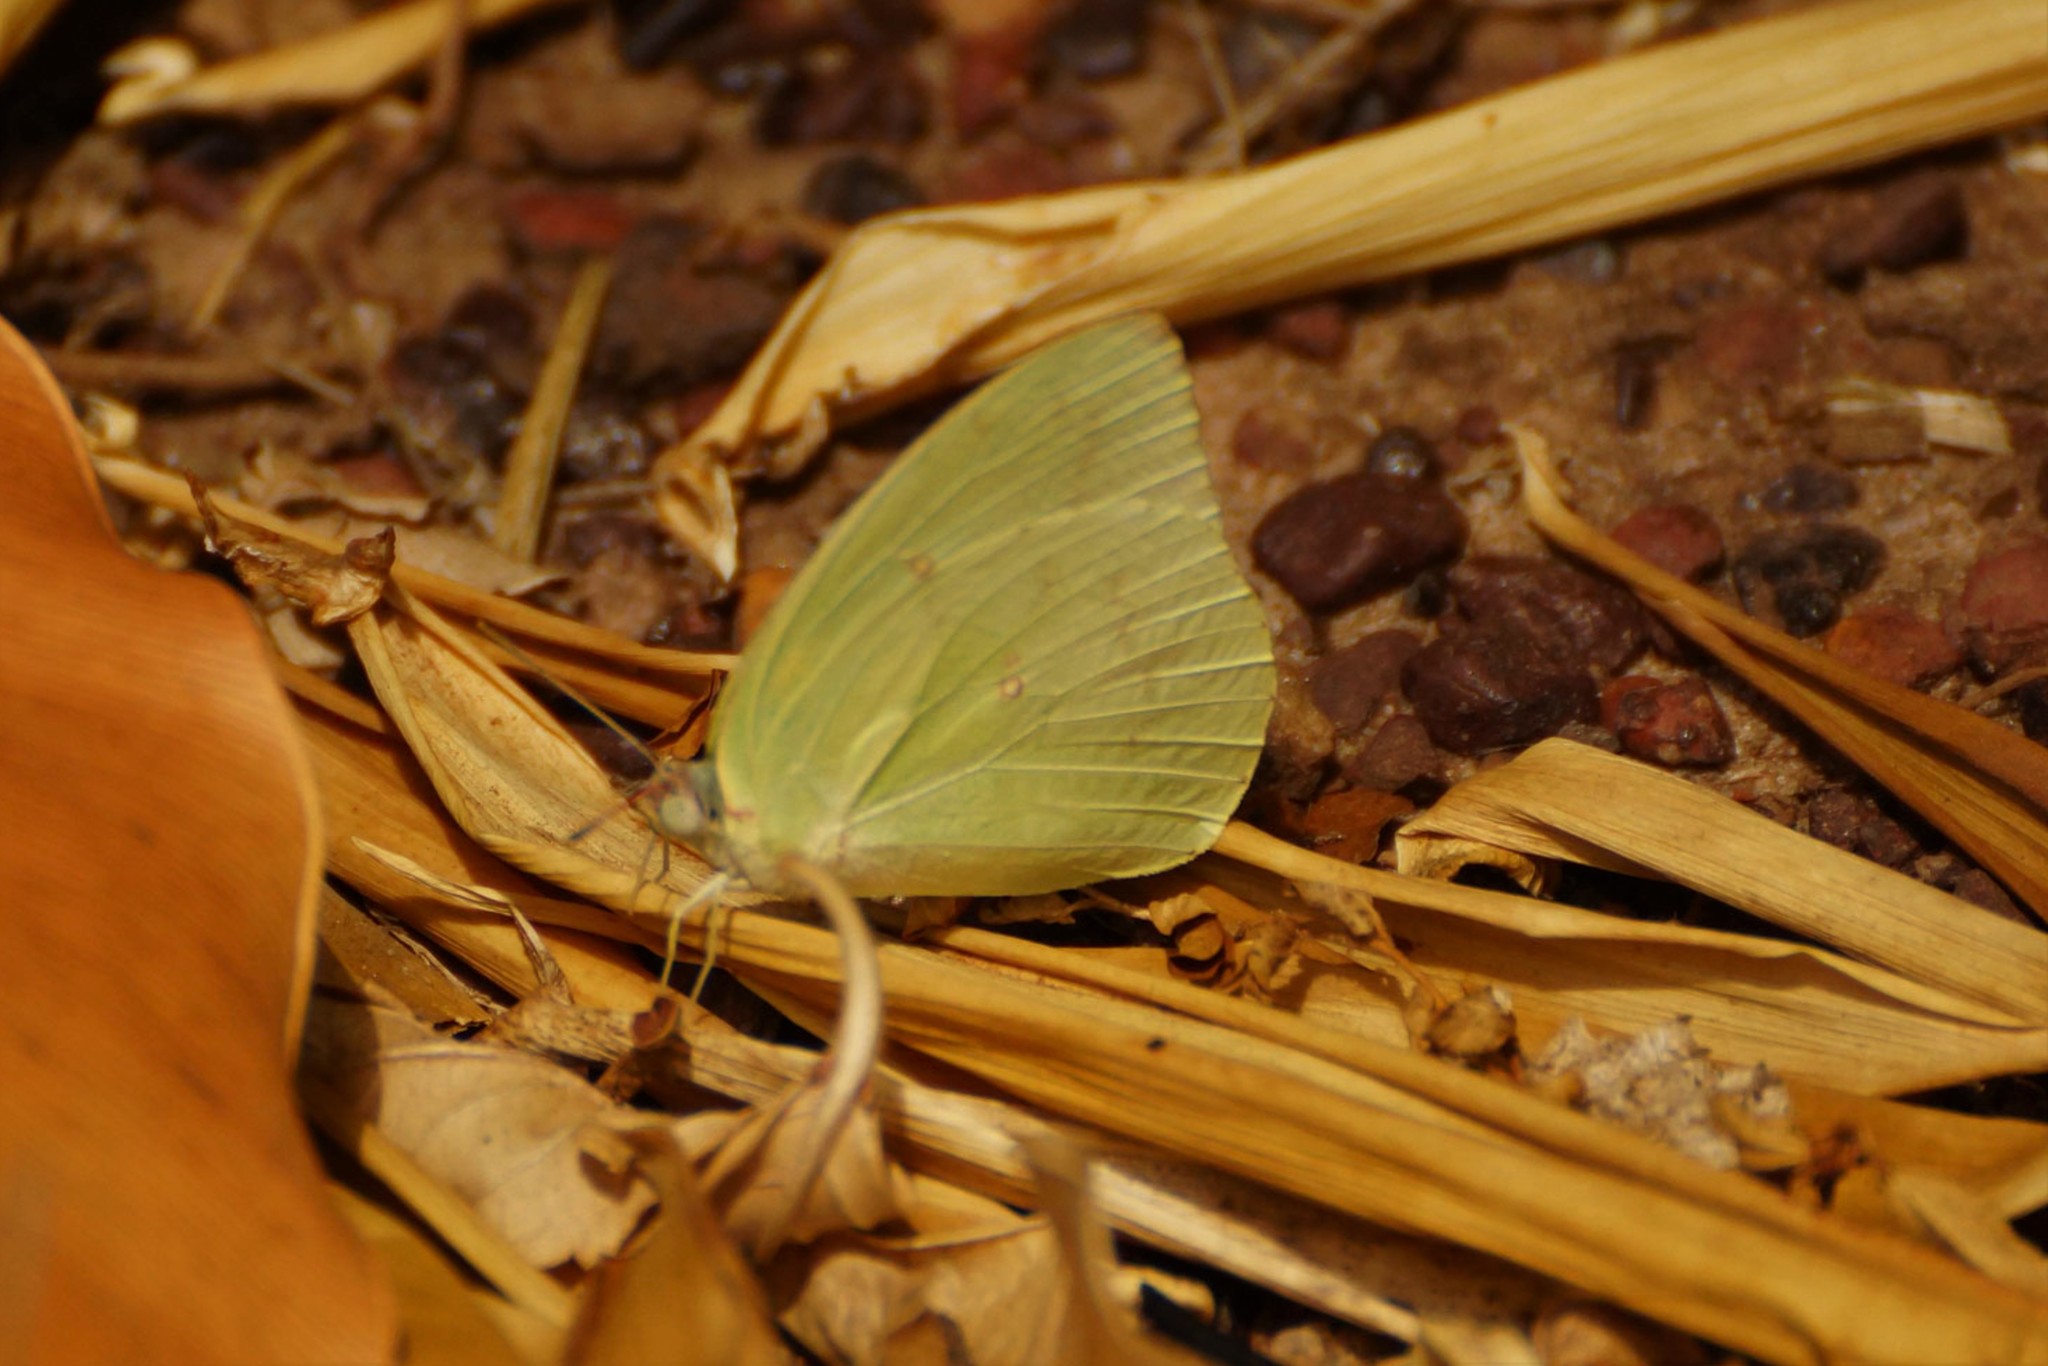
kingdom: Animalia
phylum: Arthropoda
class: Insecta
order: Lepidoptera
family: Pieridae
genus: Catopsilia
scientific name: Catopsilia pomona
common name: Common emigrant
